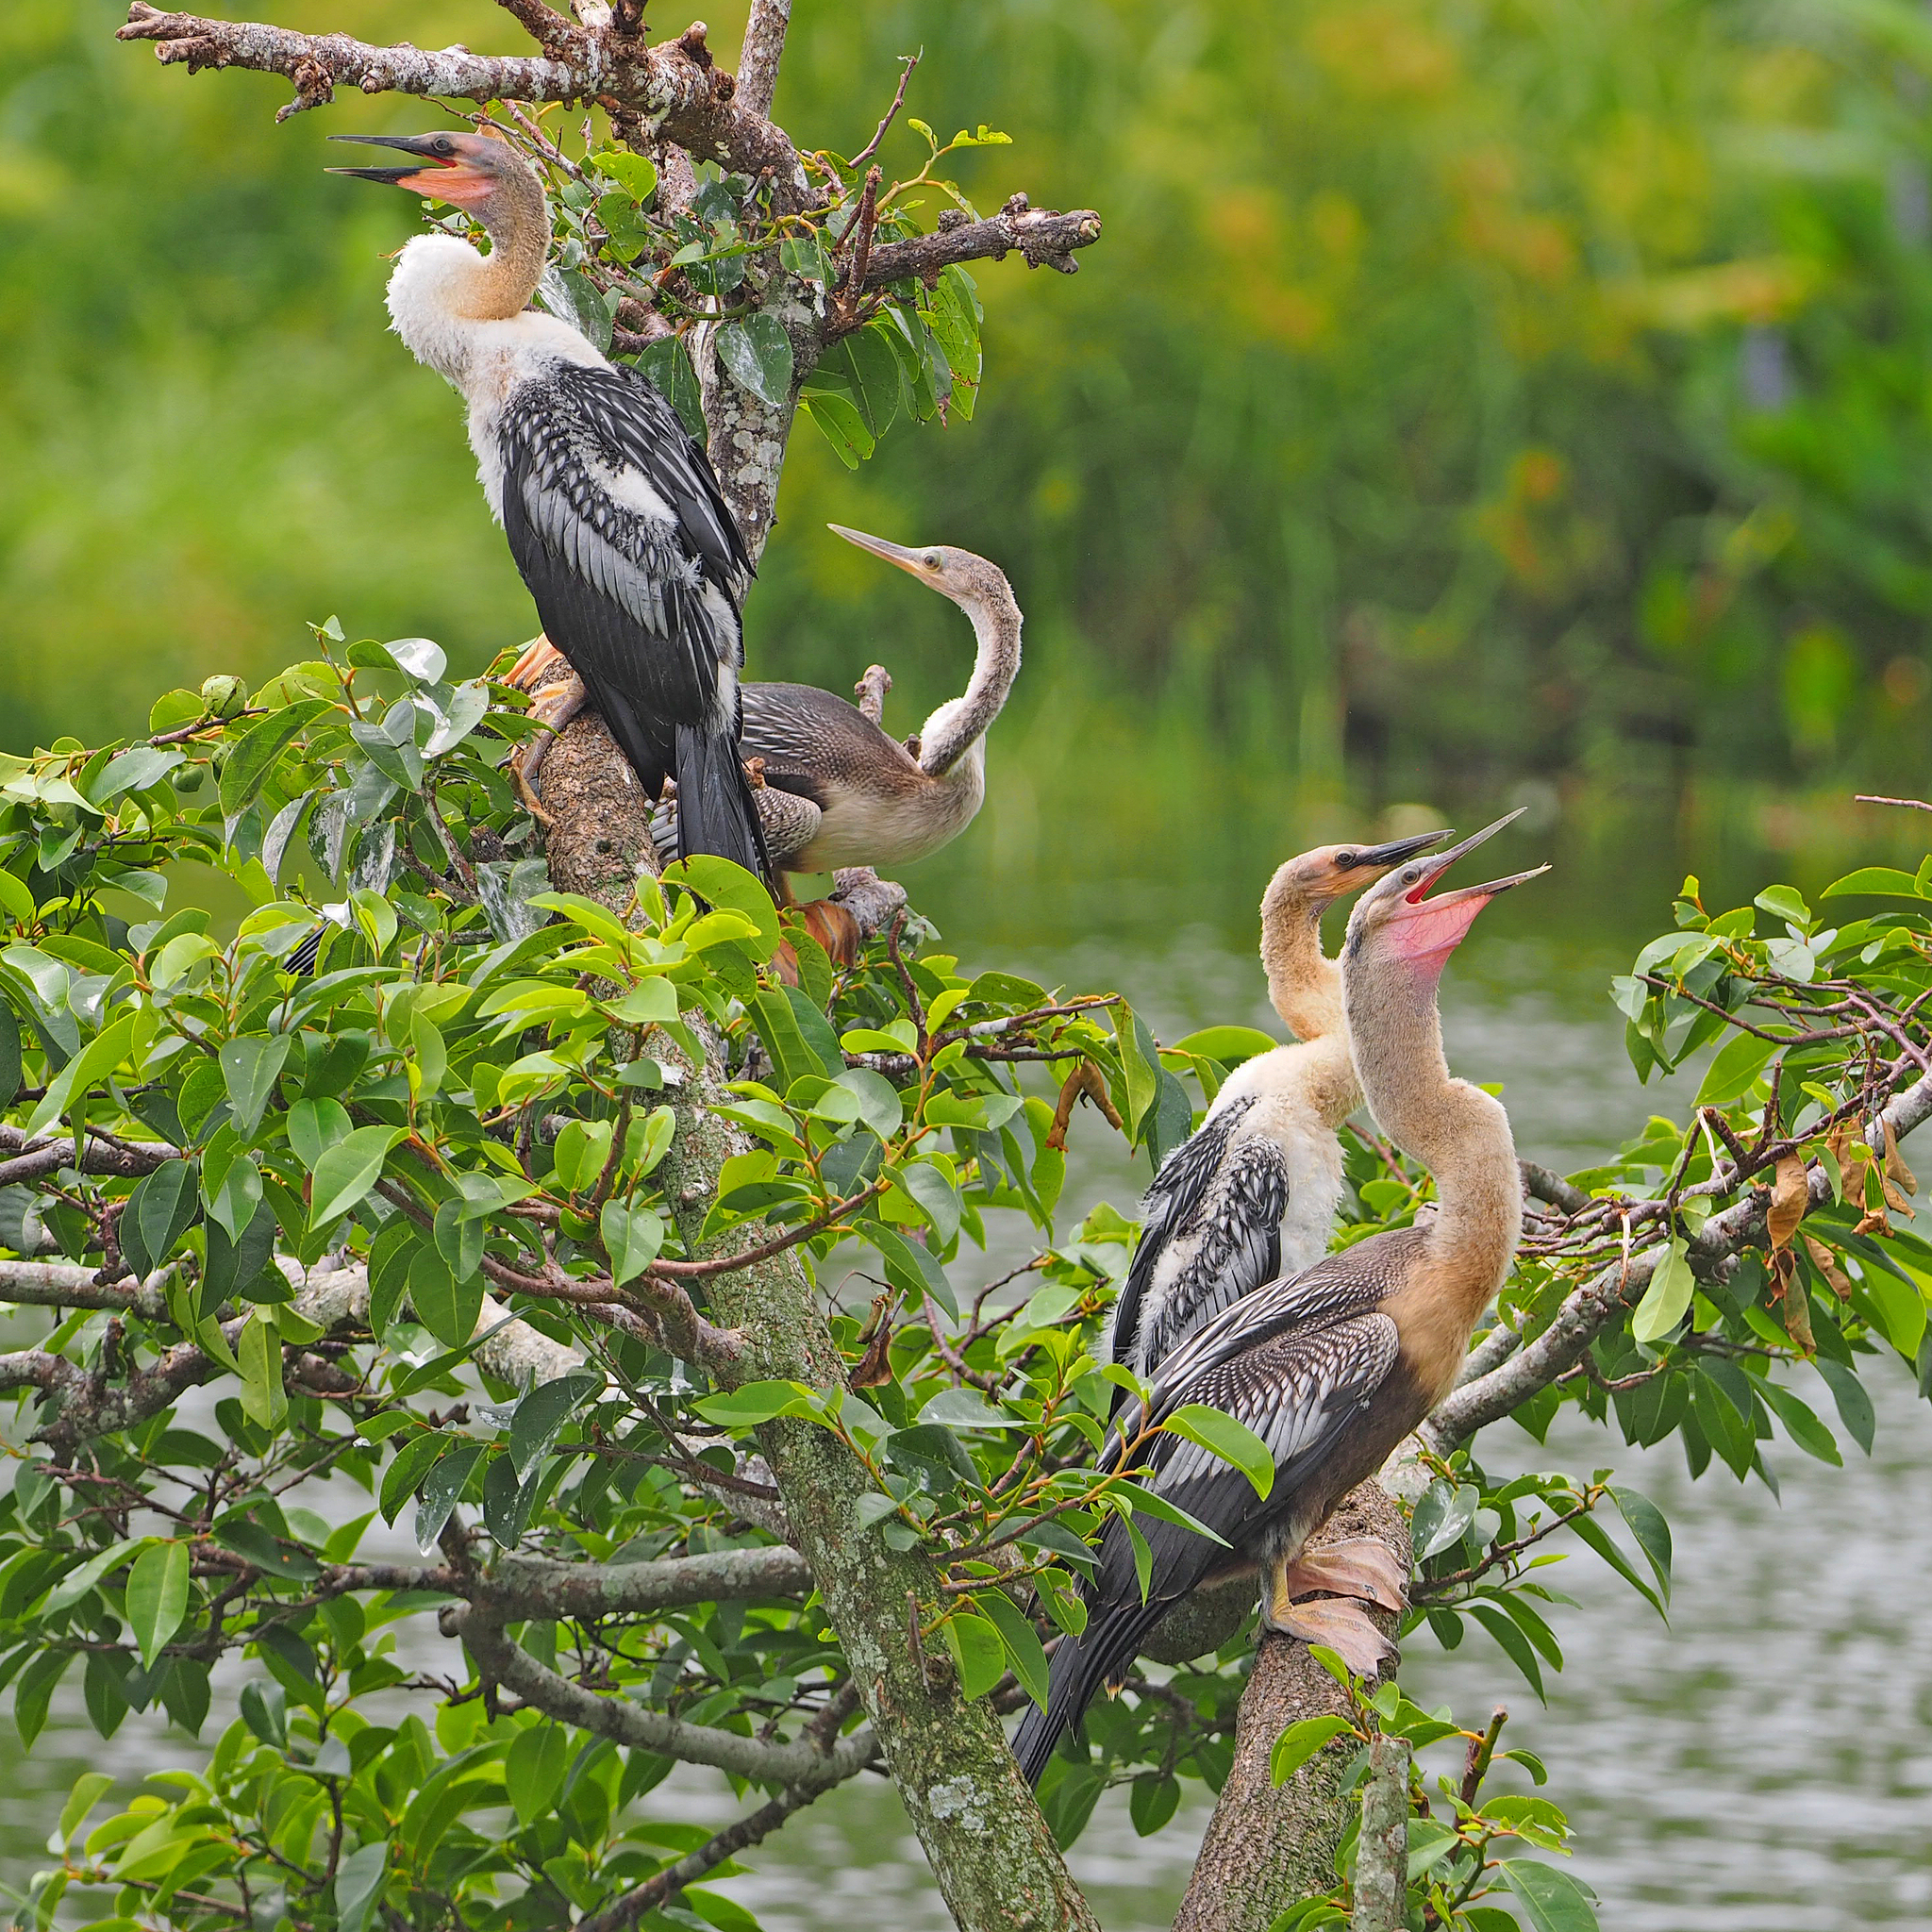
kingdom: Animalia
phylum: Chordata
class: Aves
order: Suliformes
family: Anhingidae
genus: Anhinga
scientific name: Anhinga anhinga
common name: Anhinga
